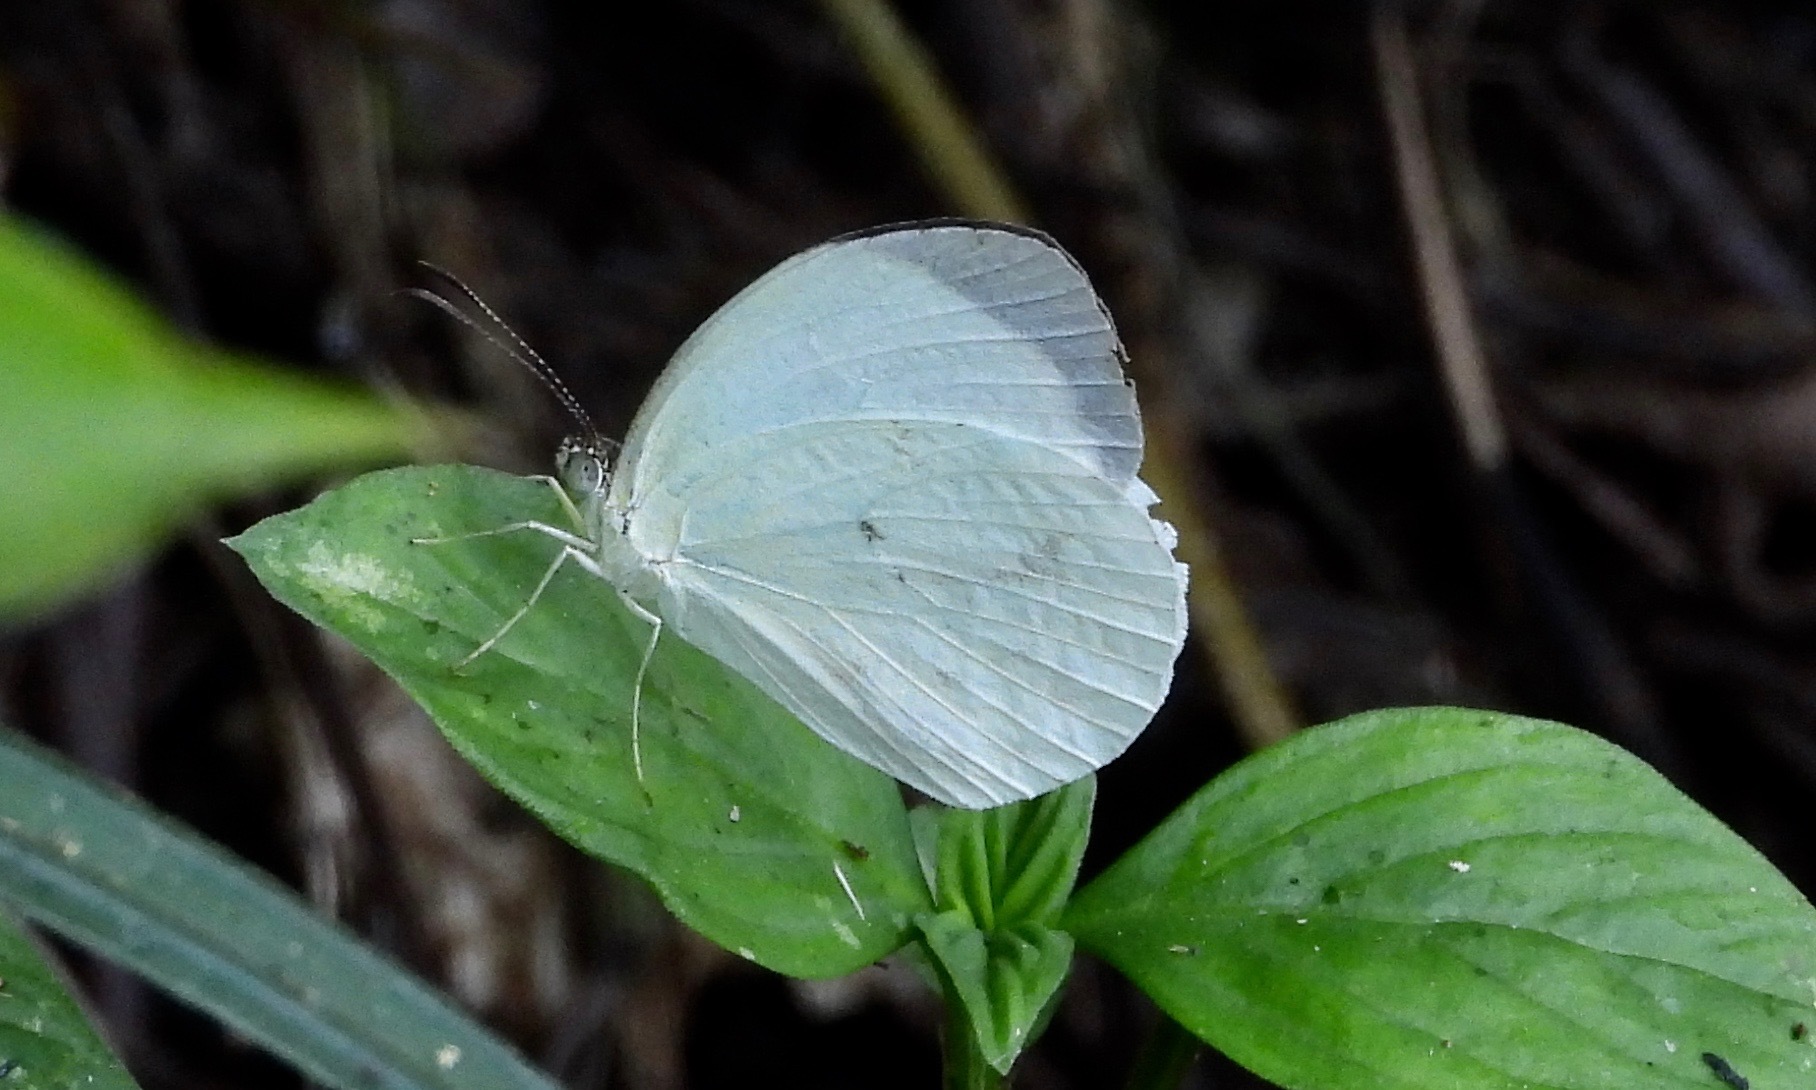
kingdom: Animalia
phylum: Arthropoda
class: Insecta
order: Lepidoptera
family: Pieridae
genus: Abaeis
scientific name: Abaeis albula
